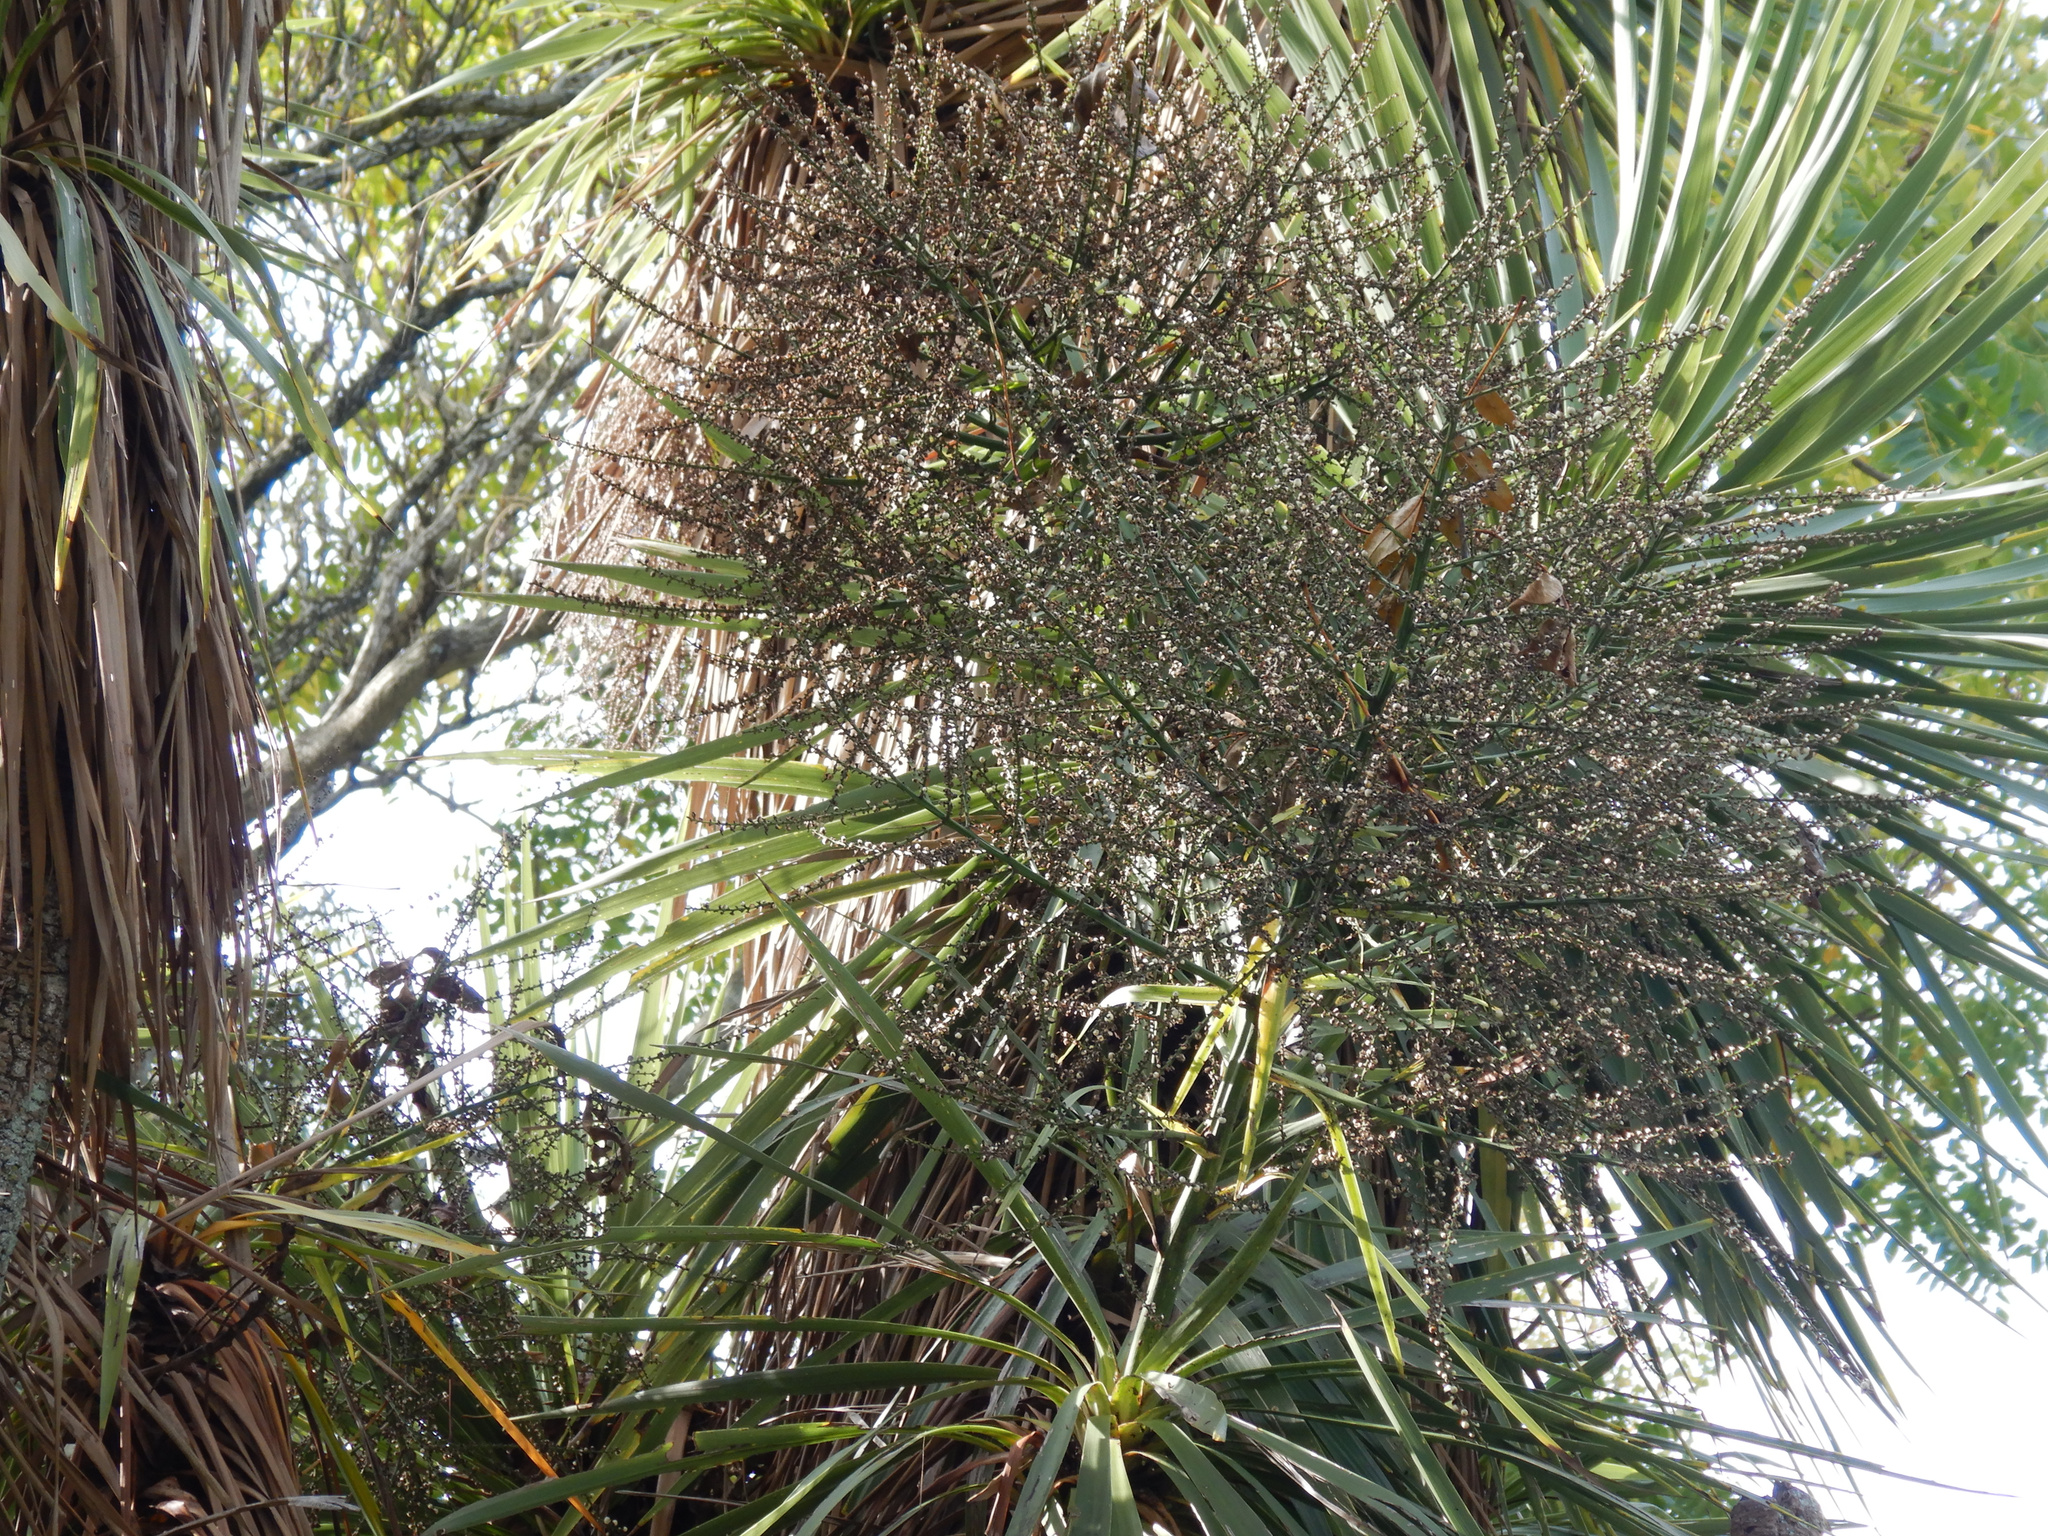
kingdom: Plantae
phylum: Tracheophyta
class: Liliopsida
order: Asparagales
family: Asparagaceae
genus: Cordyline
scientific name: Cordyline australis
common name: Cabbage-palm
